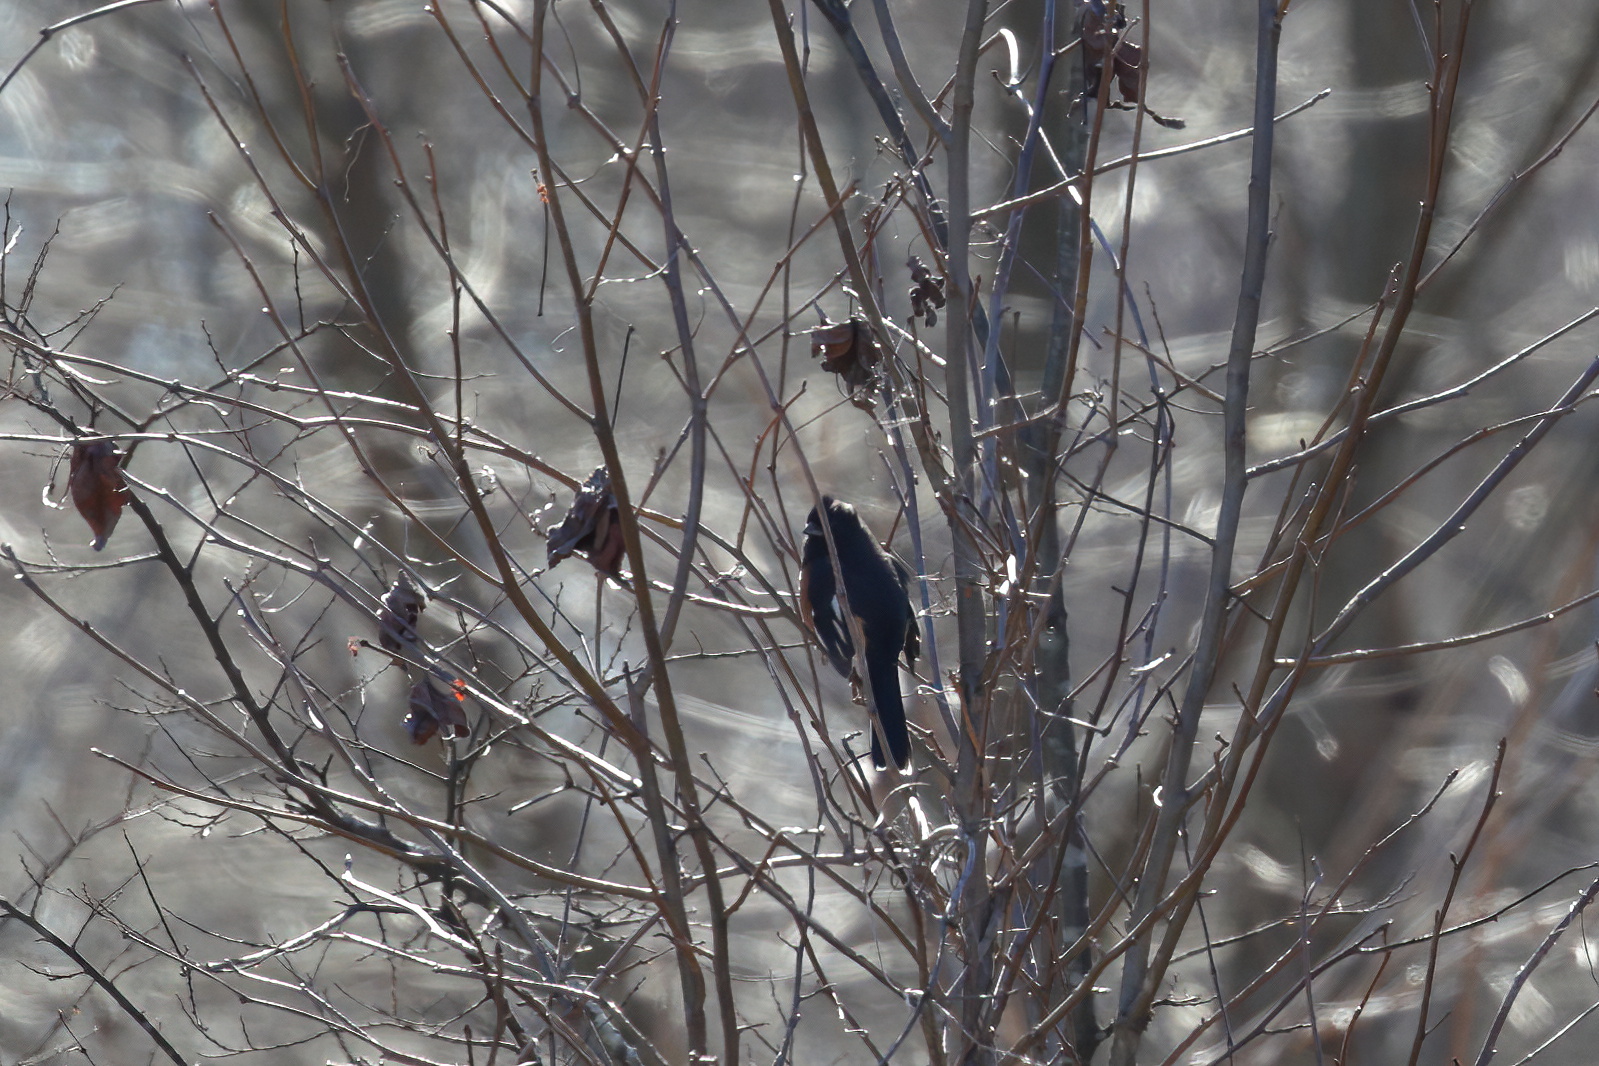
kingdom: Animalia
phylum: Chordata
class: Aves
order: Passeriformes
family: Passerellidae
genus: Pipilo
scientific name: Pipilo erythrophthalmus
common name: Eastern towhee
